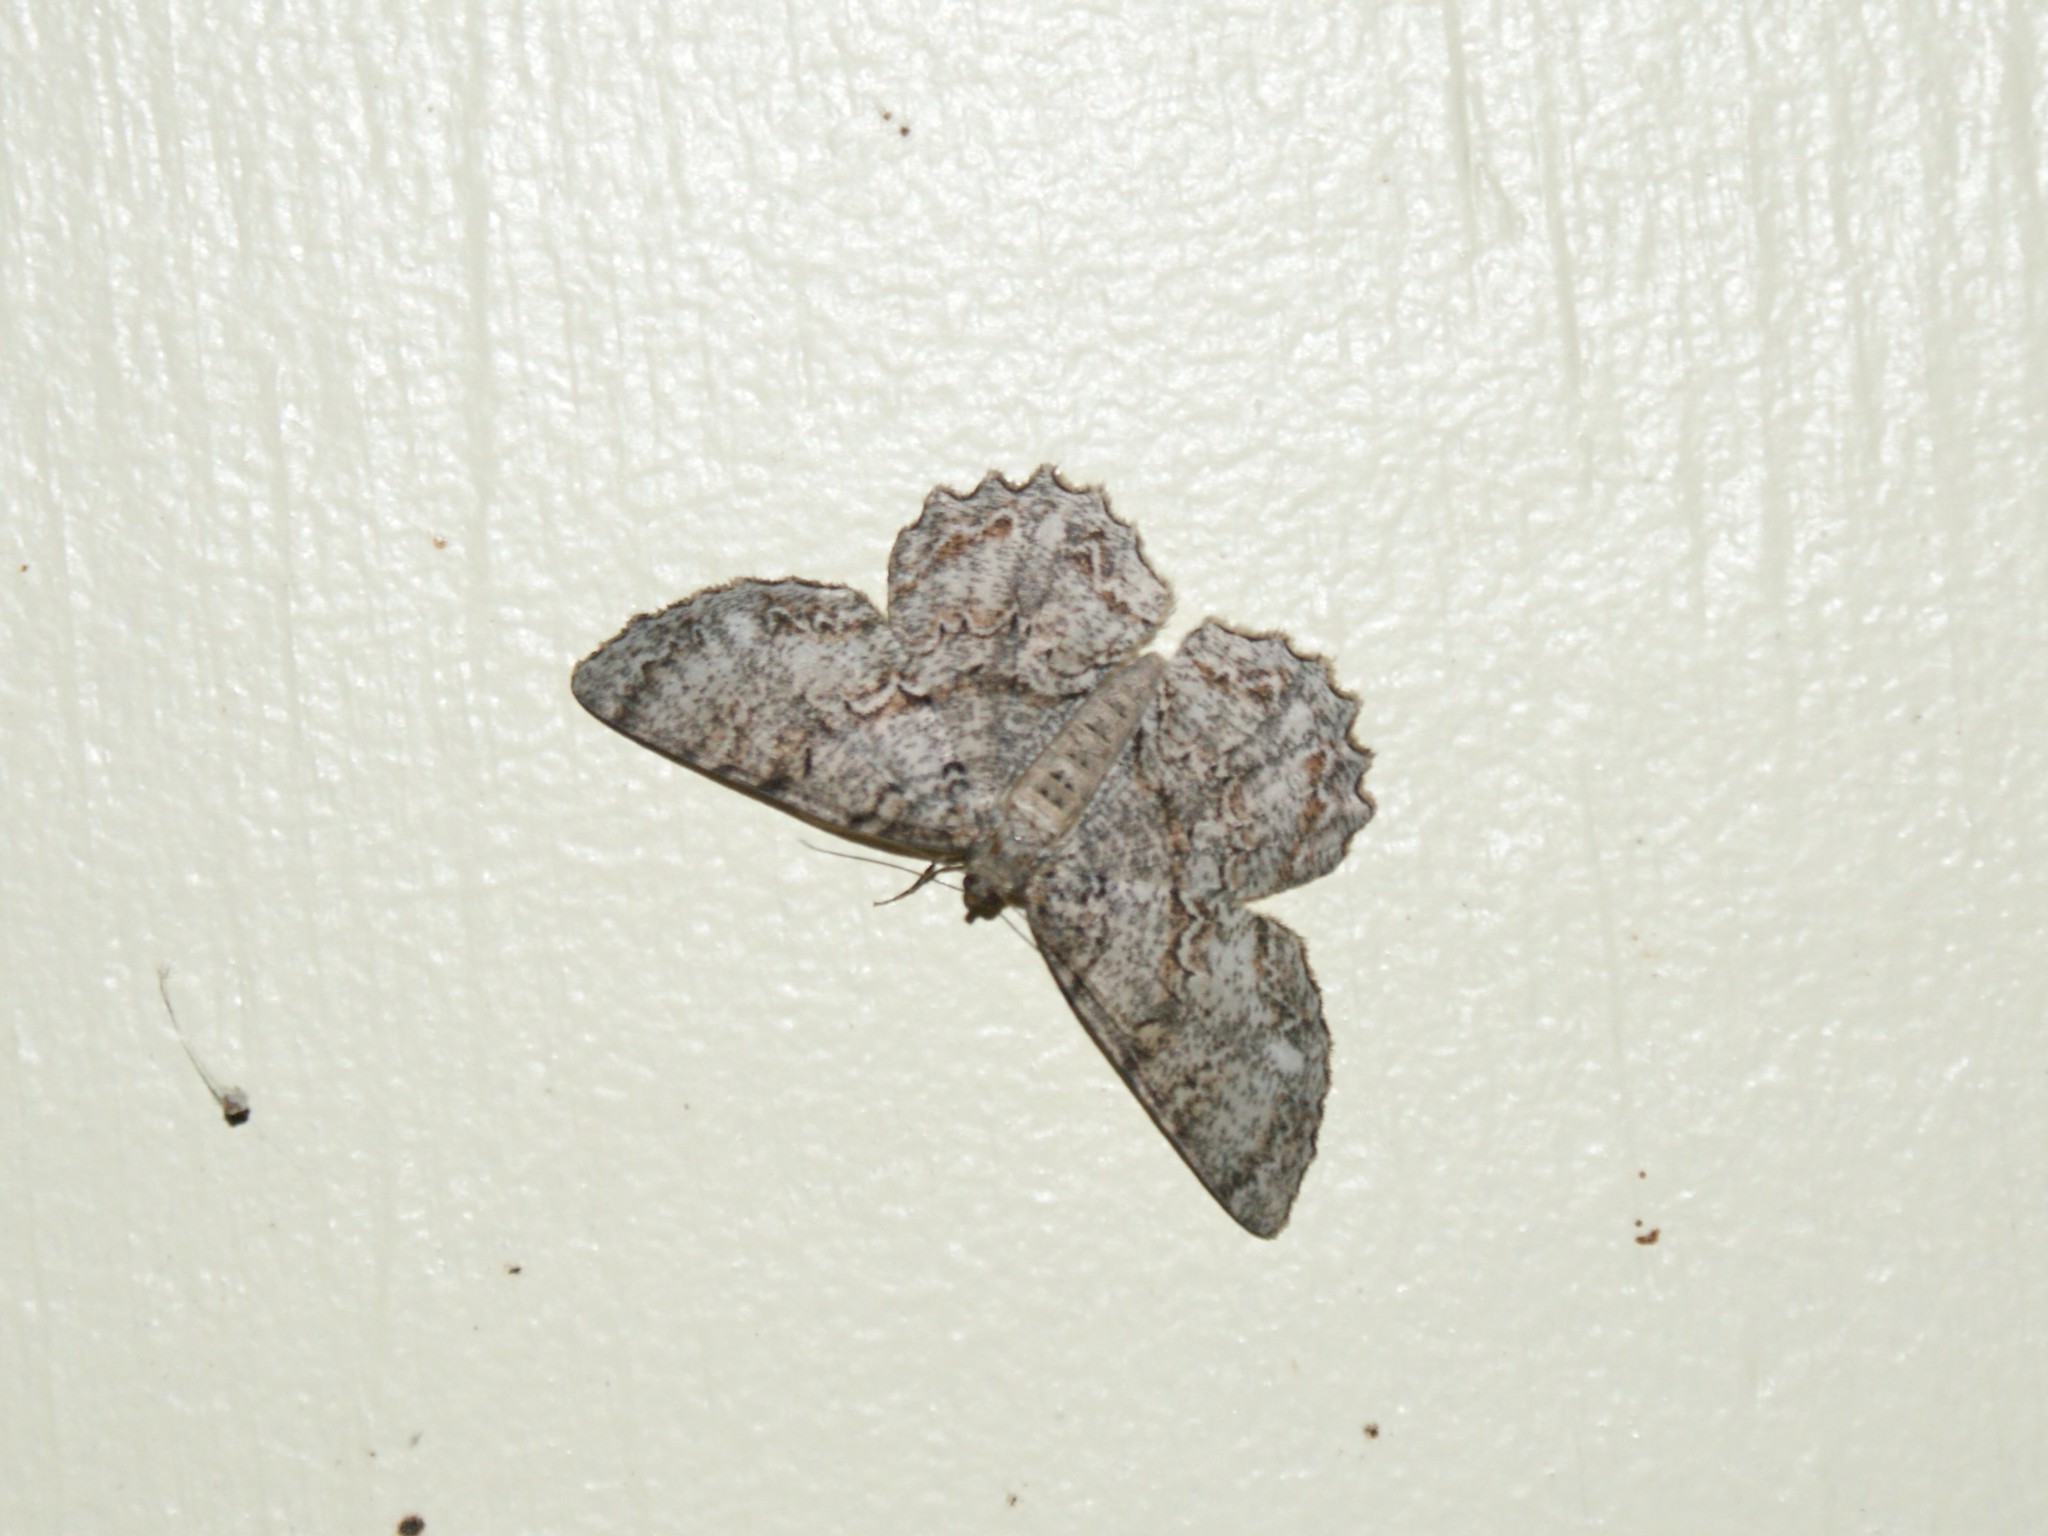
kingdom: Animalia
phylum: Arthropoda
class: Insecta
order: Lepidoptera
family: Geometridae
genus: Epimecis
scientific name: Epimecis hortaria
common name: Tulip-tree beauty
